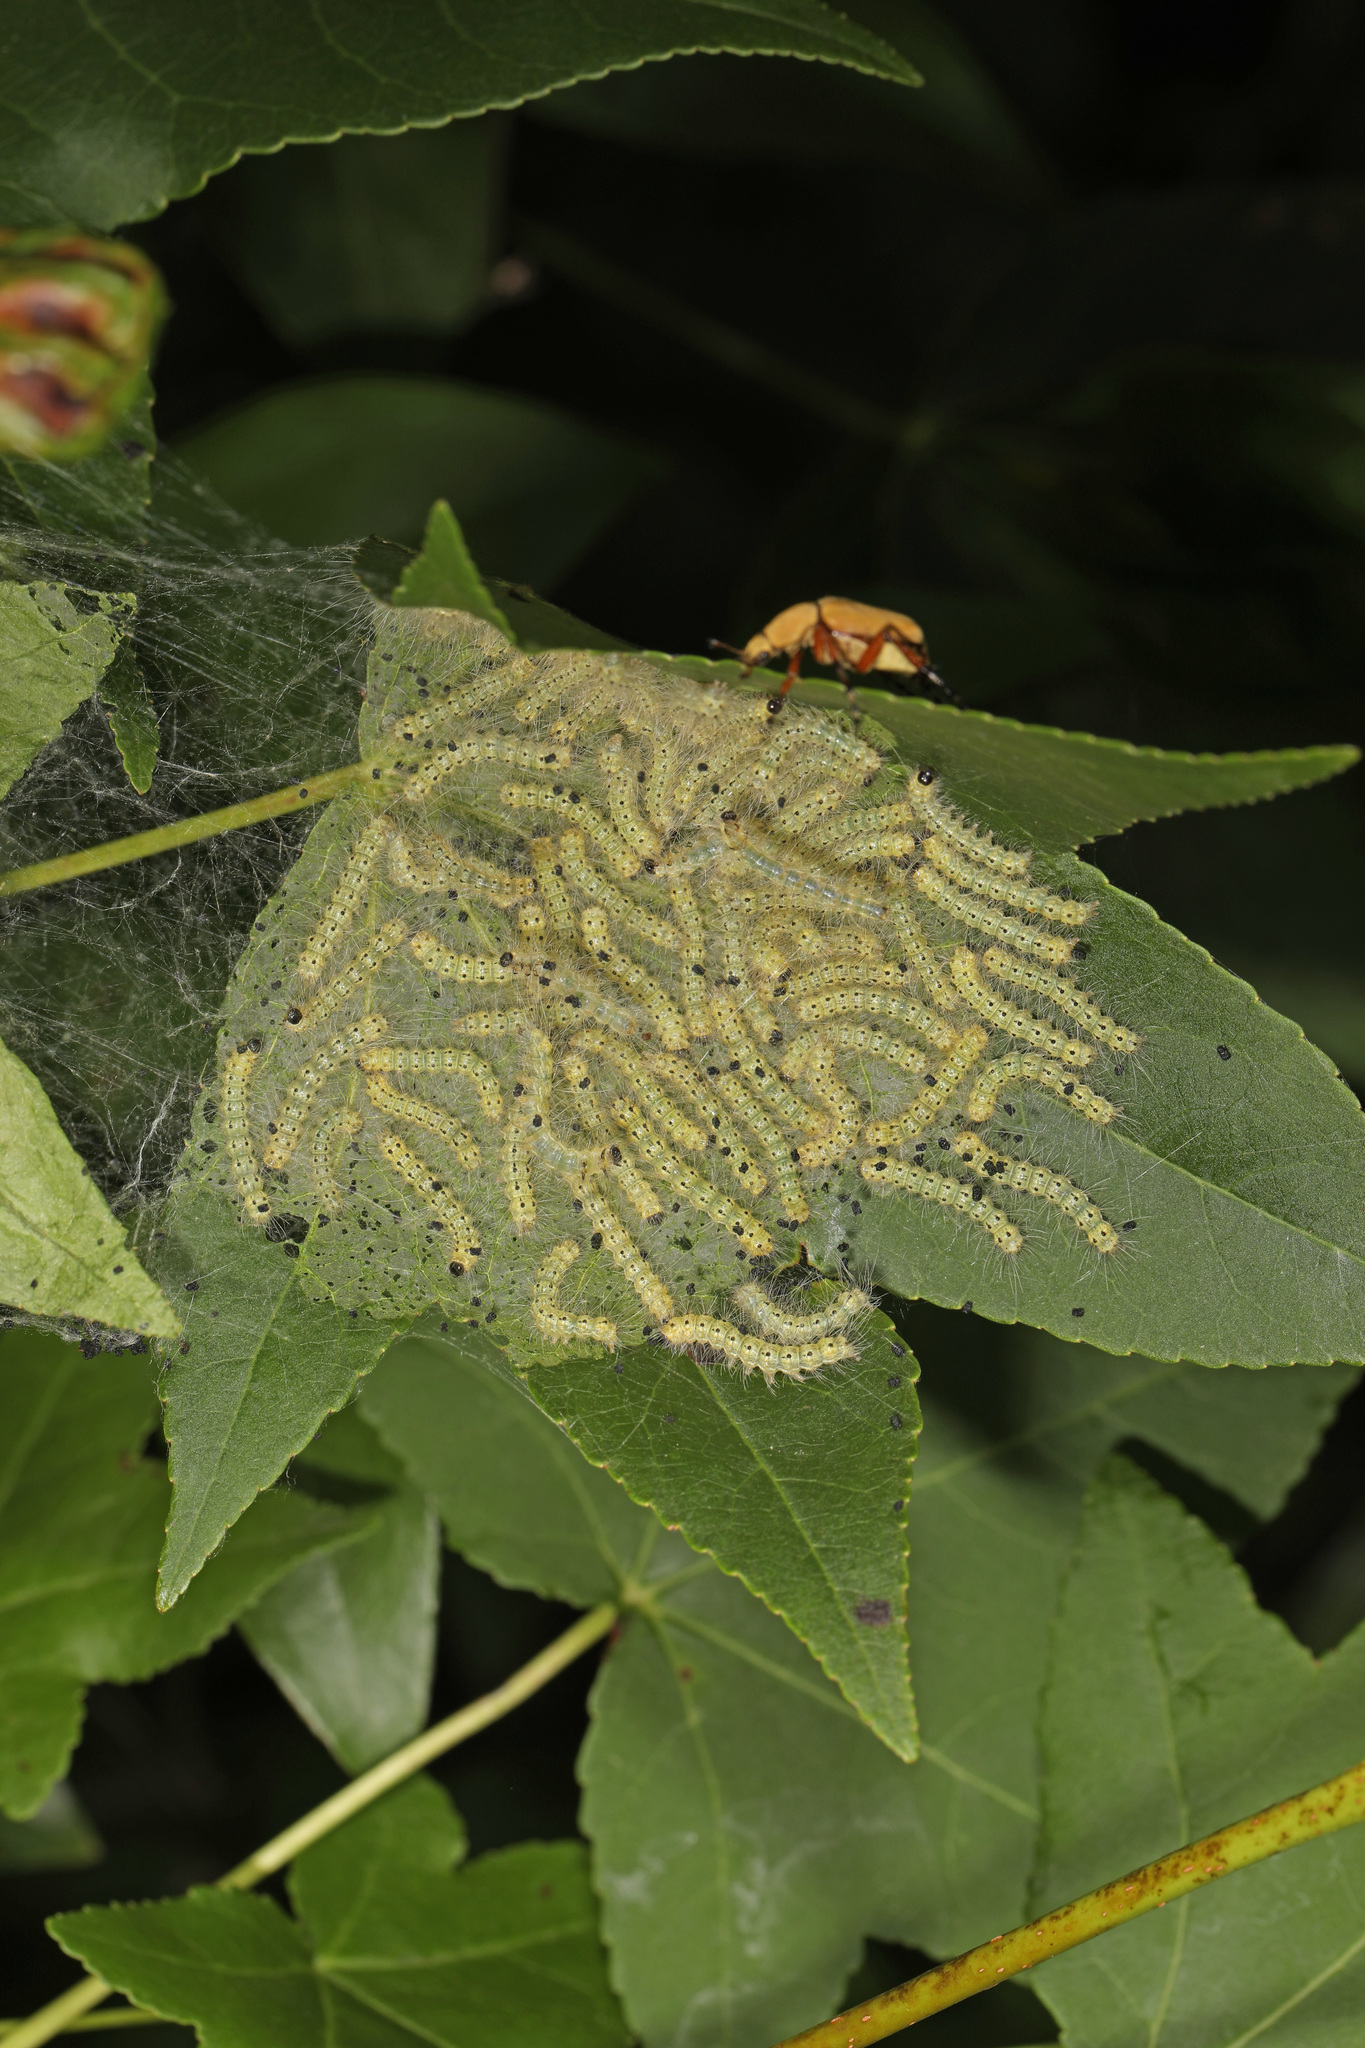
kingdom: Animalia
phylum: Arthropoda
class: Insecta
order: Lepidoptera
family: Erebidae
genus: Hyphantria
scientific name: Hyphantria cunea
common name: American white moth
